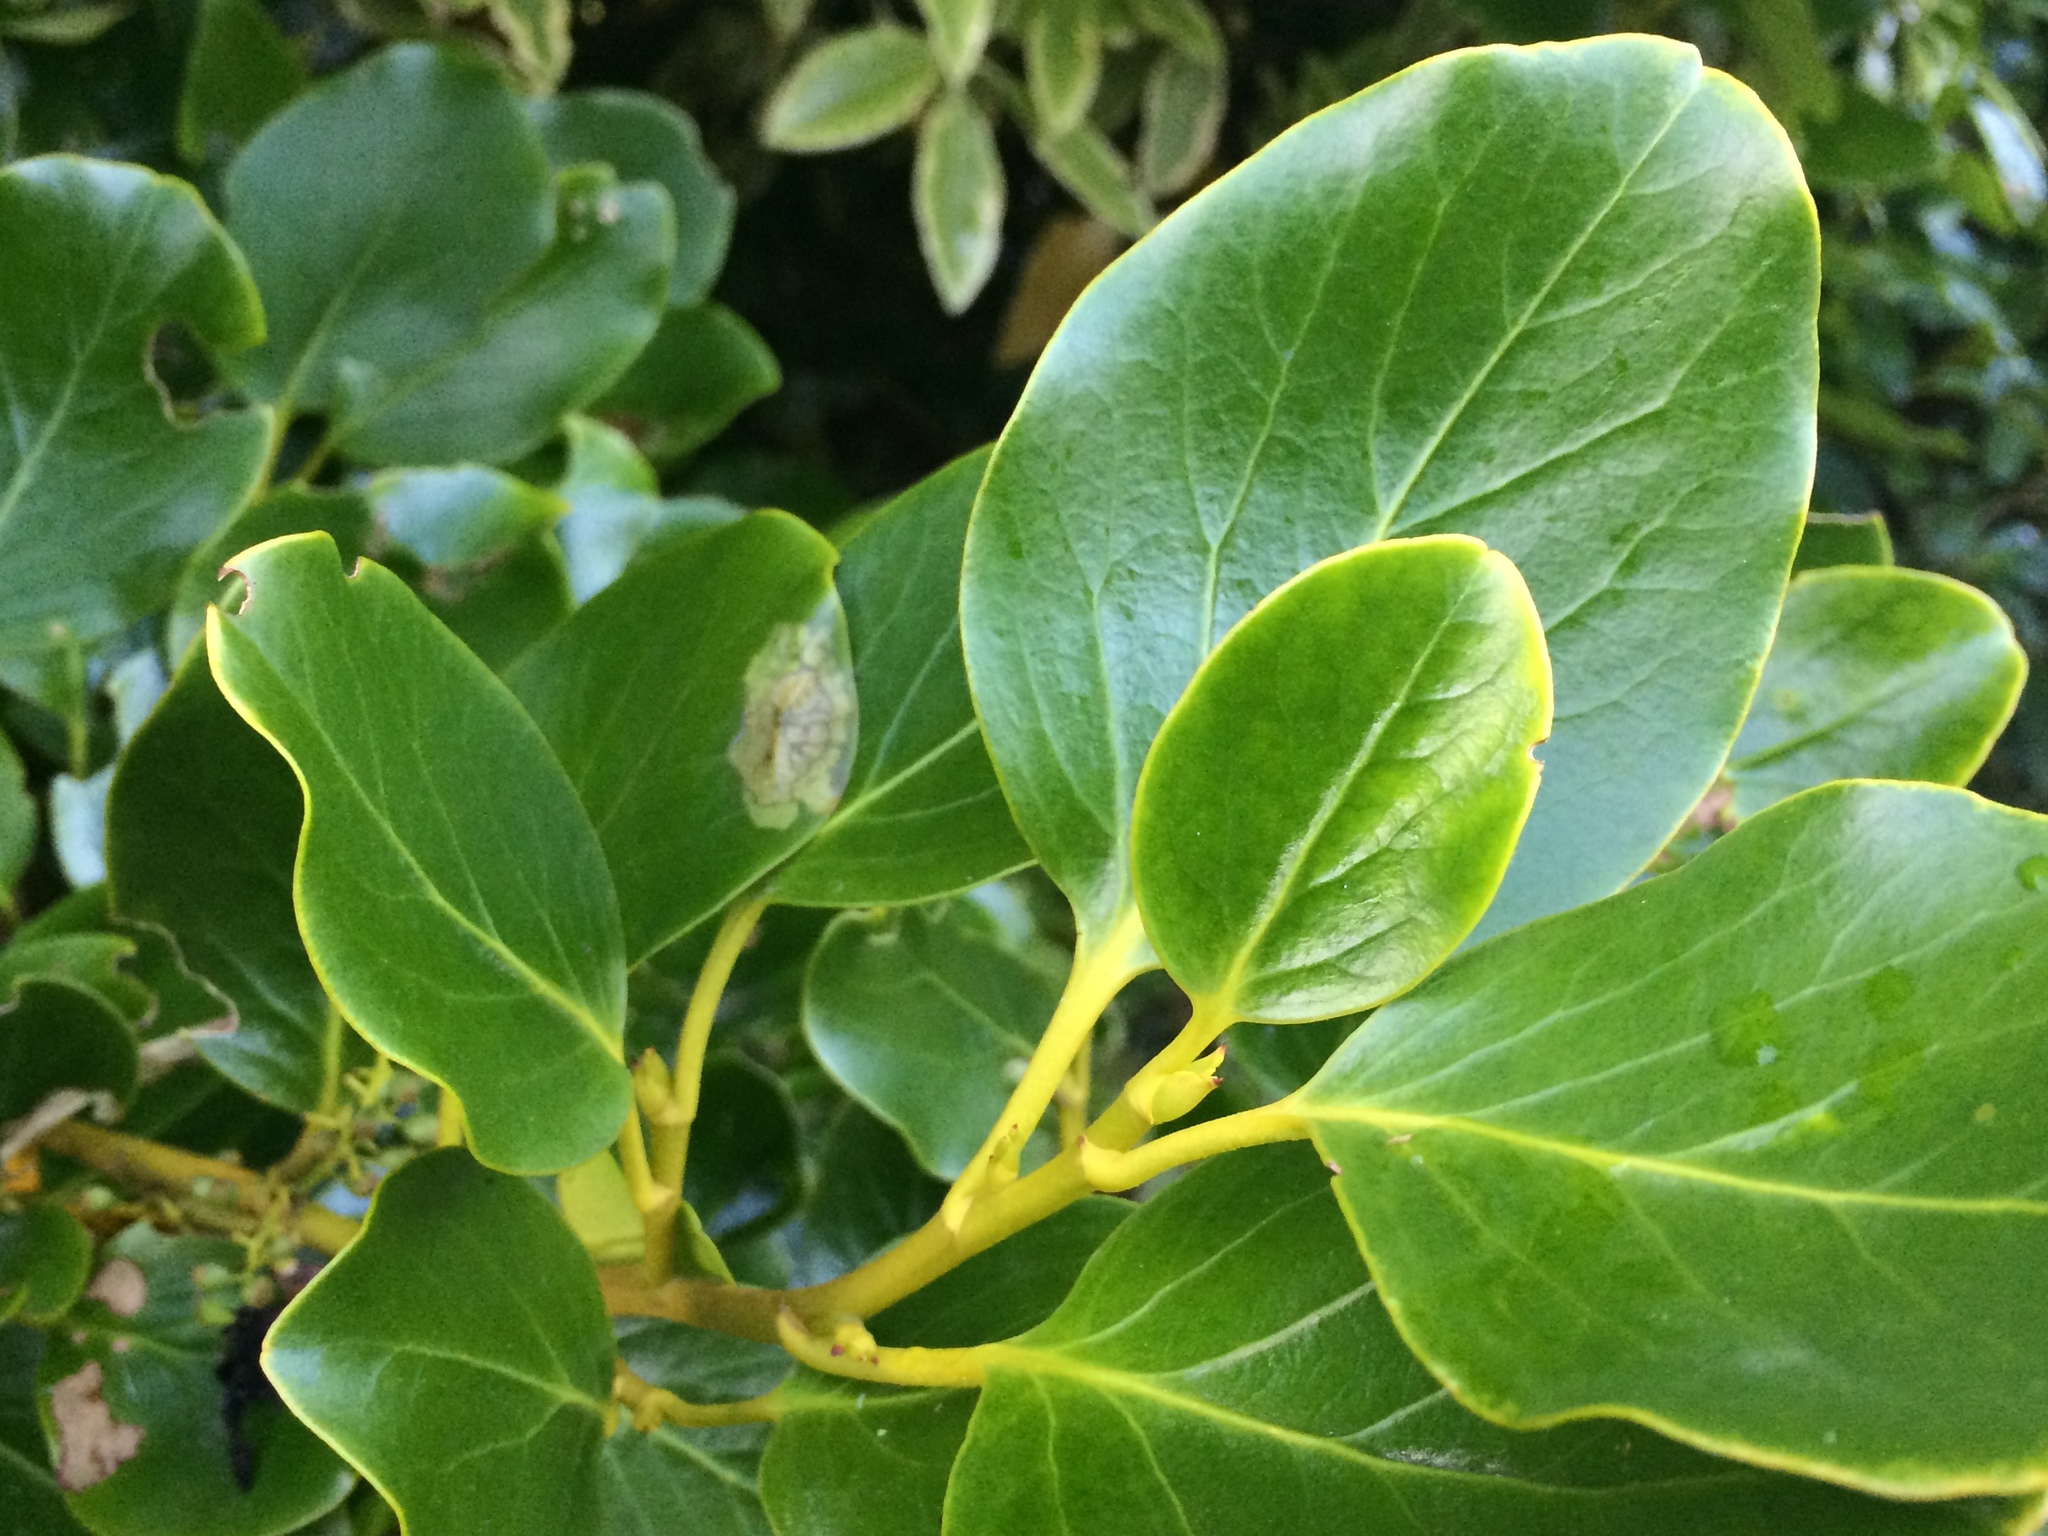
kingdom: Plantae
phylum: Tracheophyta
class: Magnoliopsida
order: Apiales
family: Griseliniaceae
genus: Griselinia
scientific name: Griselinia littoralis
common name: New zealand broadleaf
